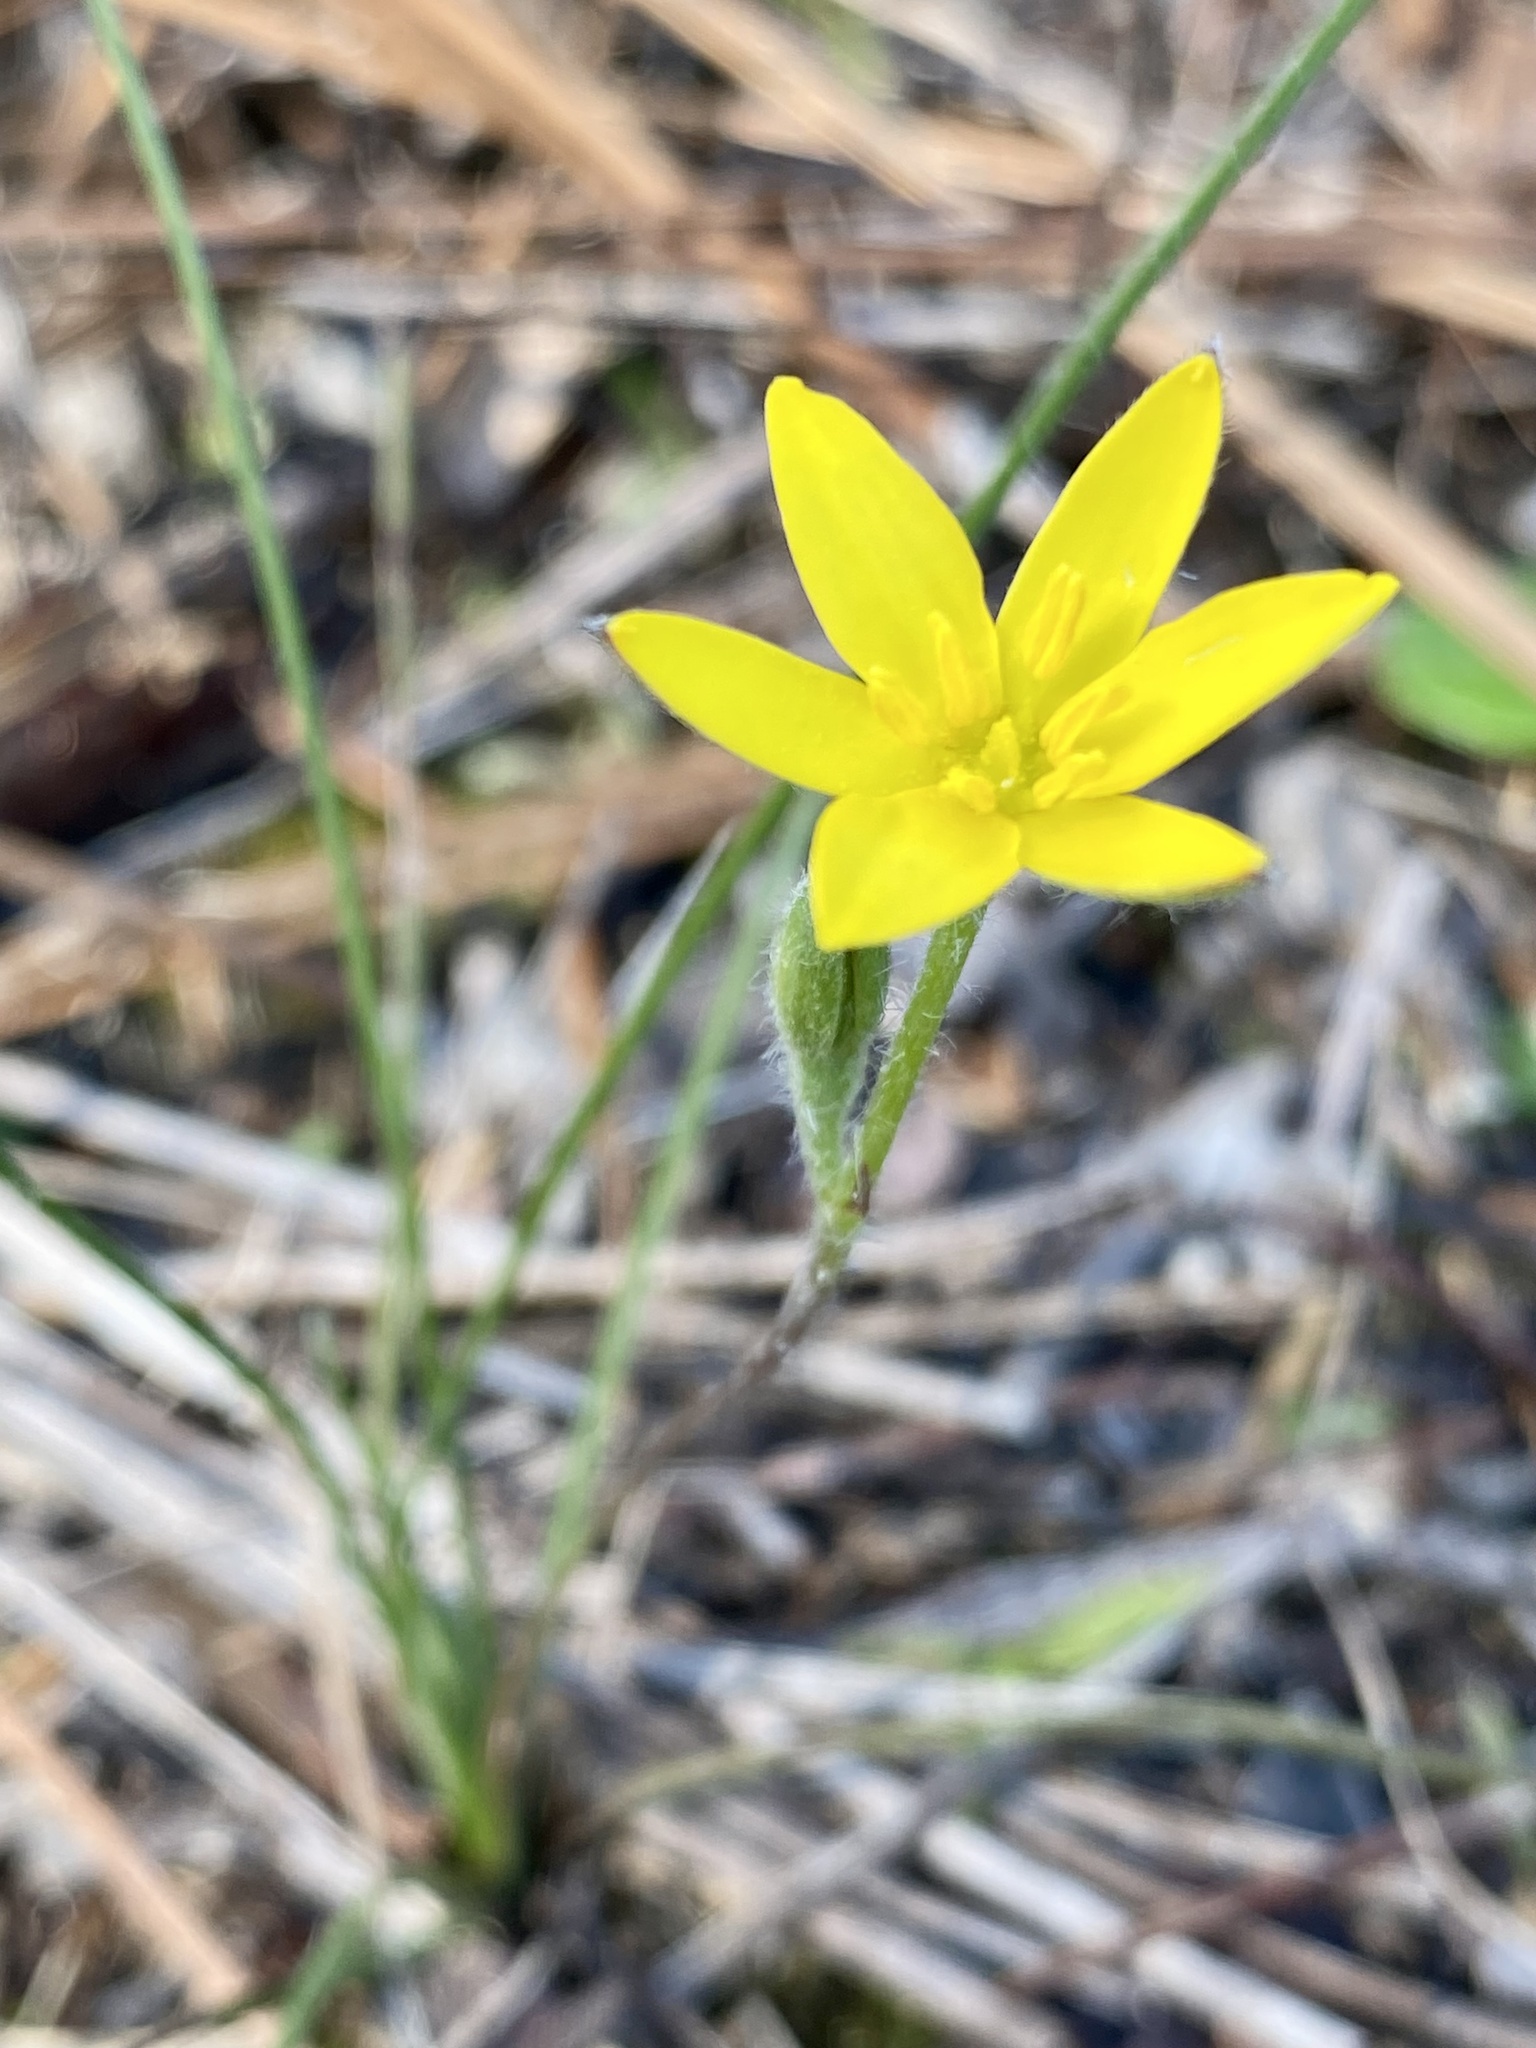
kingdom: Plantae
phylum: Tracheophyta
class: Liliopsida
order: Asparagales
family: Hypoxidaceae
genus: Hypoxis
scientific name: Hypoxis juncea
